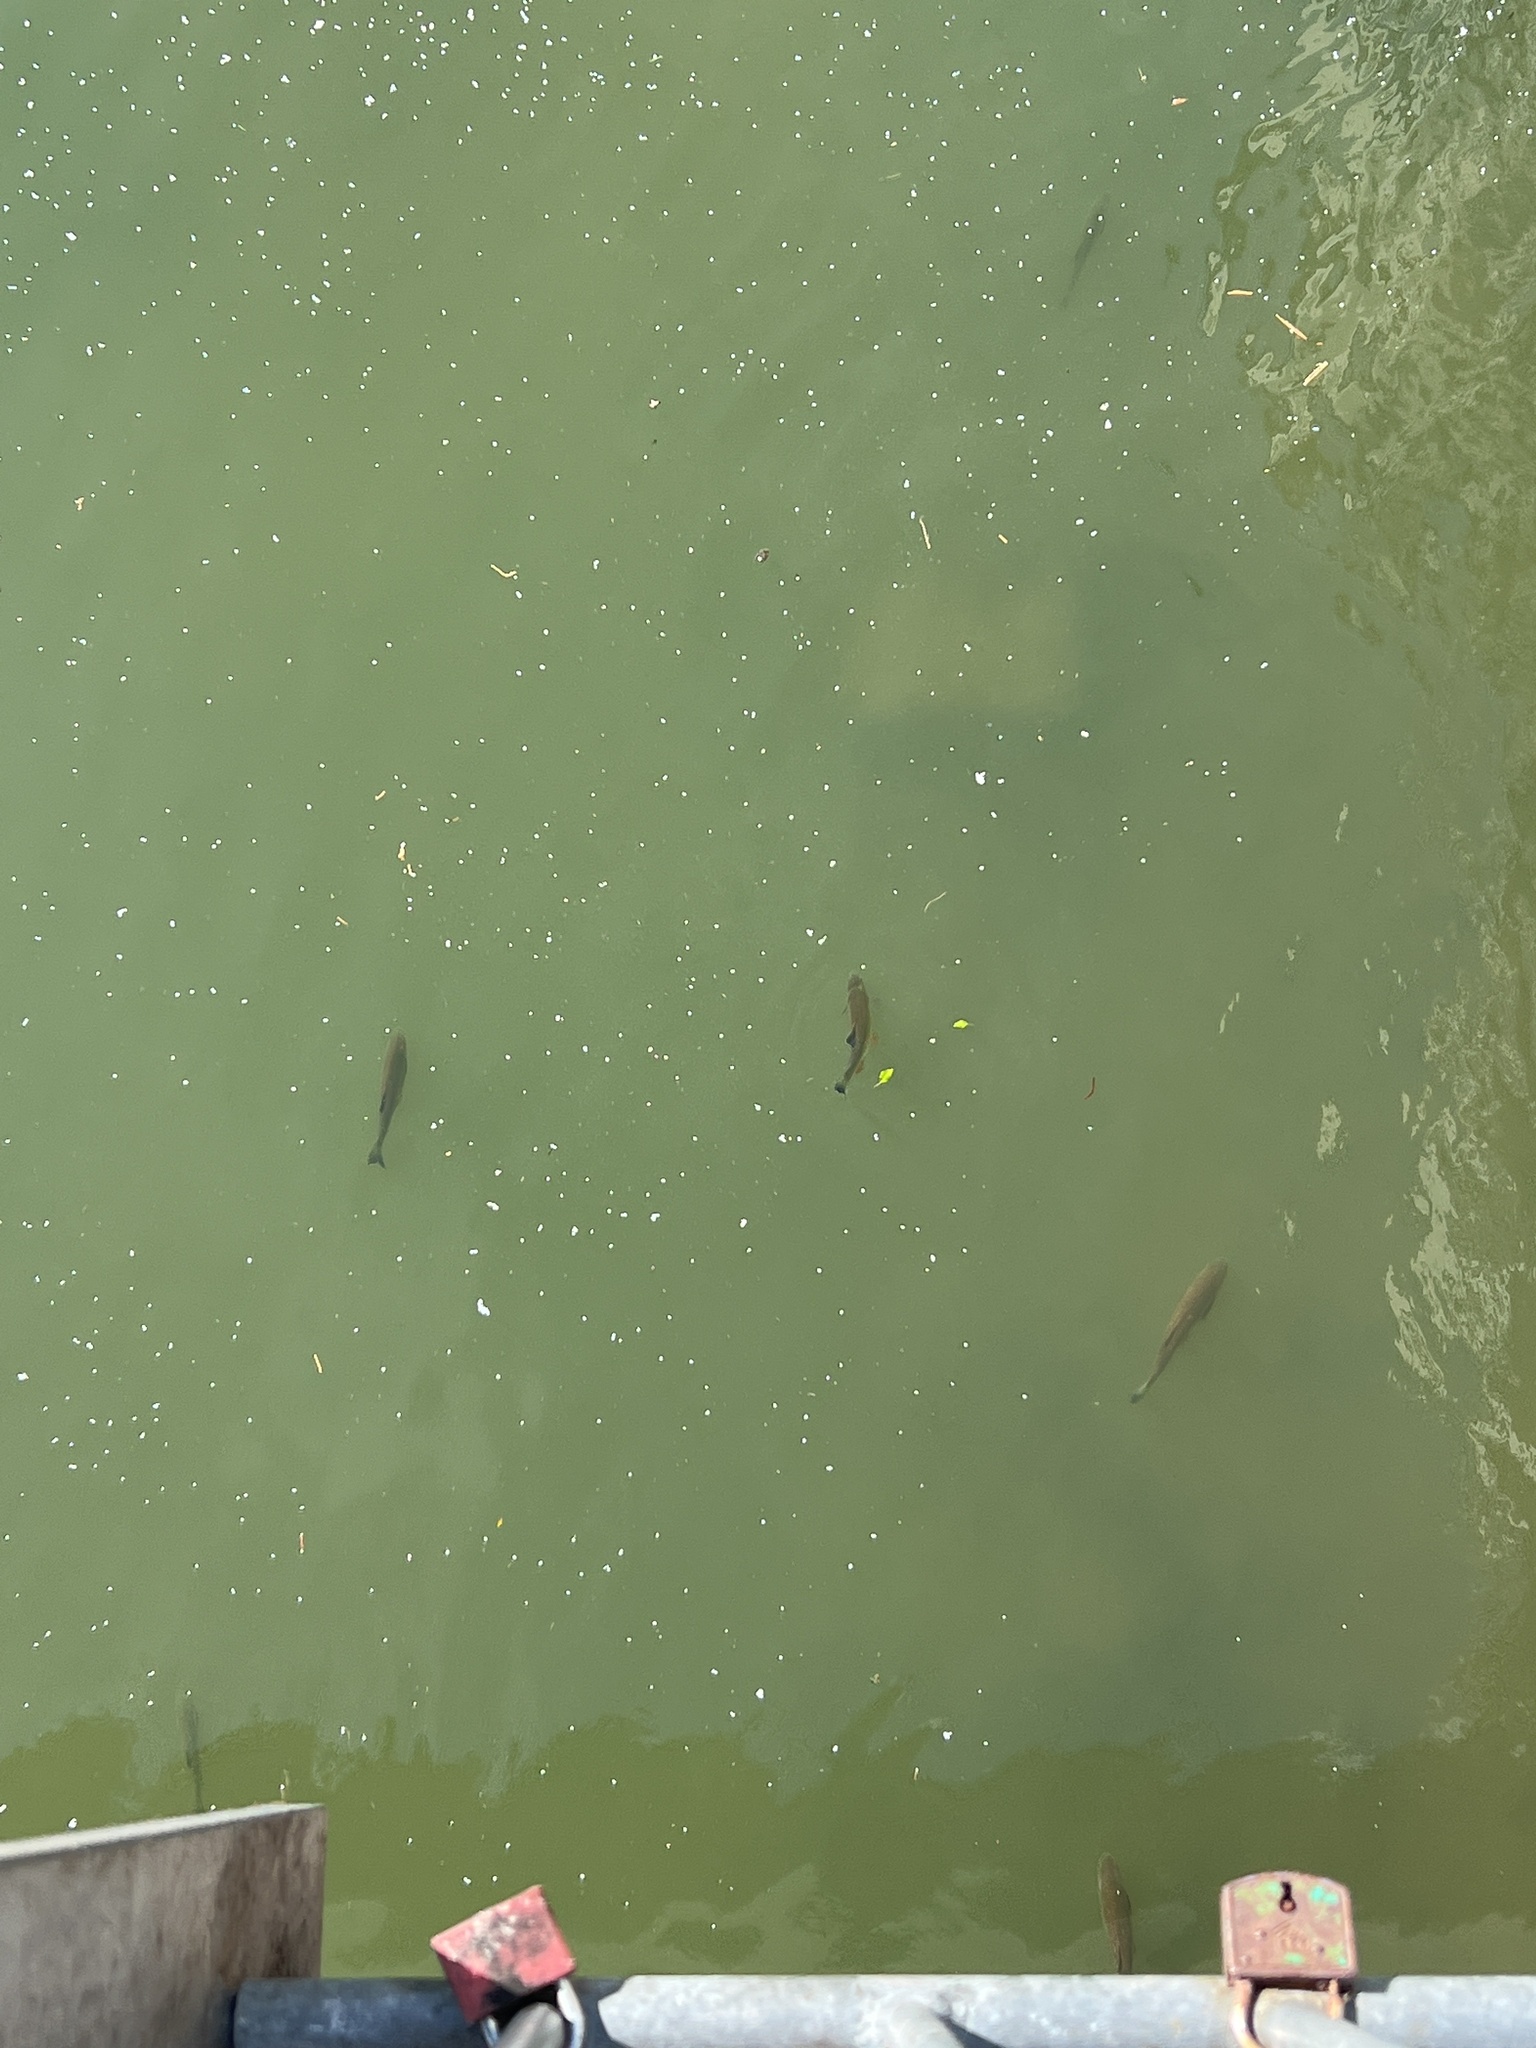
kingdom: Animalia
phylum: Chordata
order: Cypriniformes
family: Cyprinidae
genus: Squalius
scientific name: Squalius cephalus
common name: Chub
